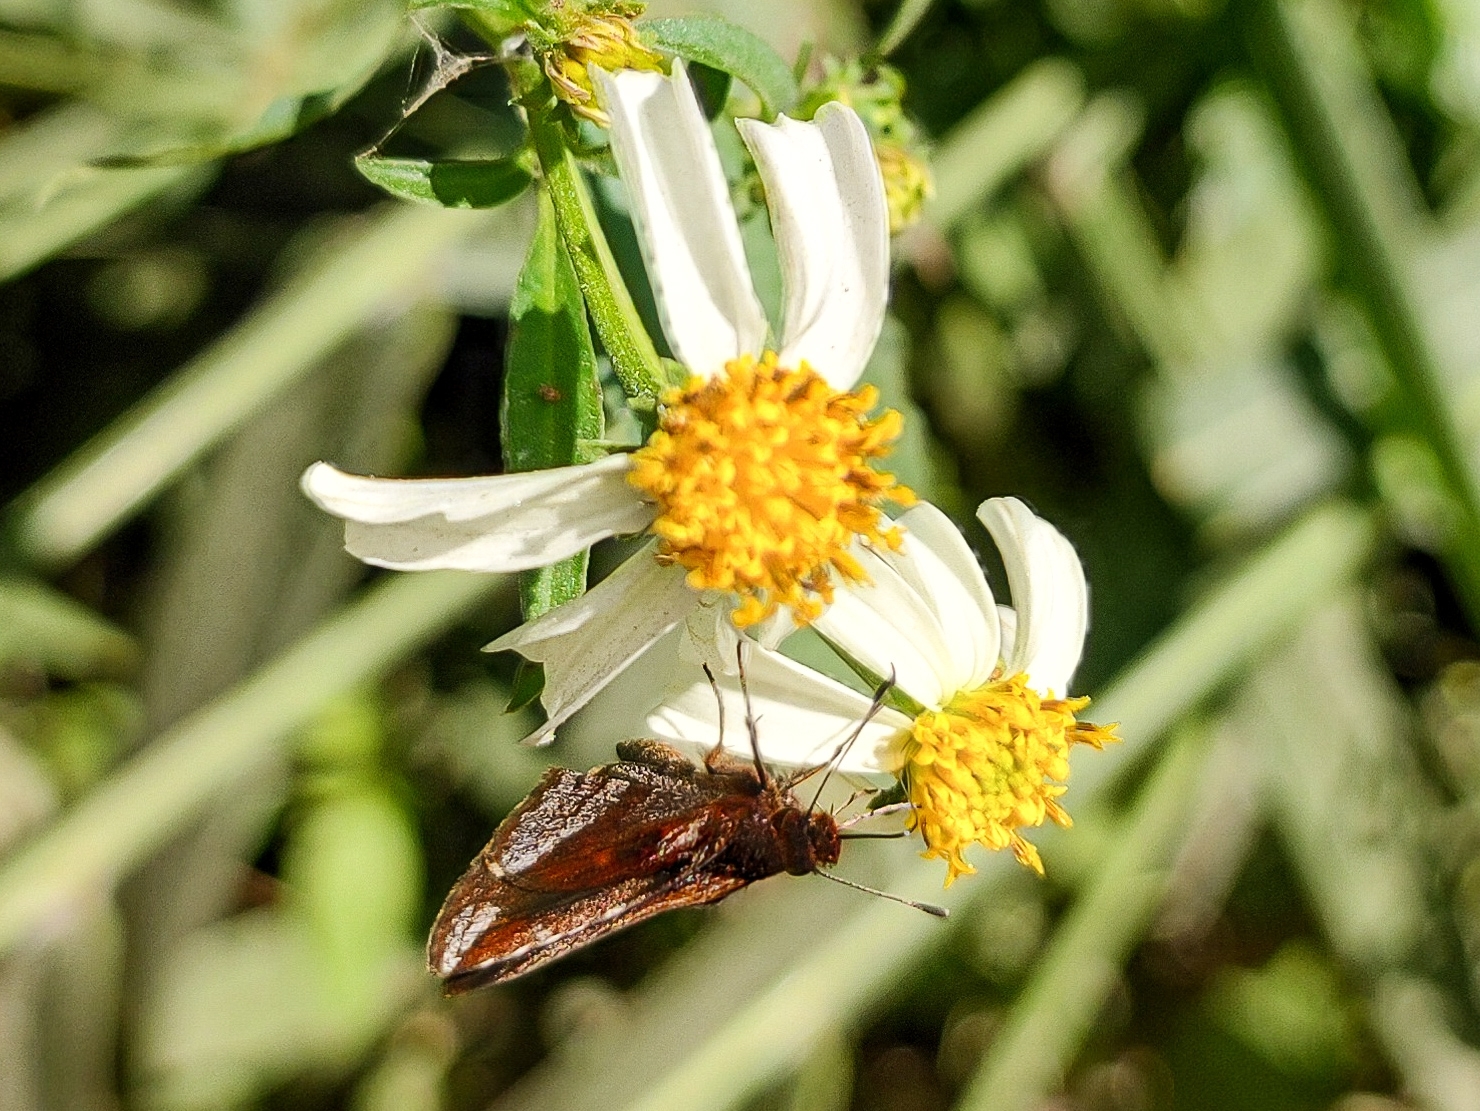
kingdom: Animalia
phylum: Arthropoda
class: Insecta
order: Lepidoptera
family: Hesperiidae
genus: Lucida
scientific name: Lucida ranesus
